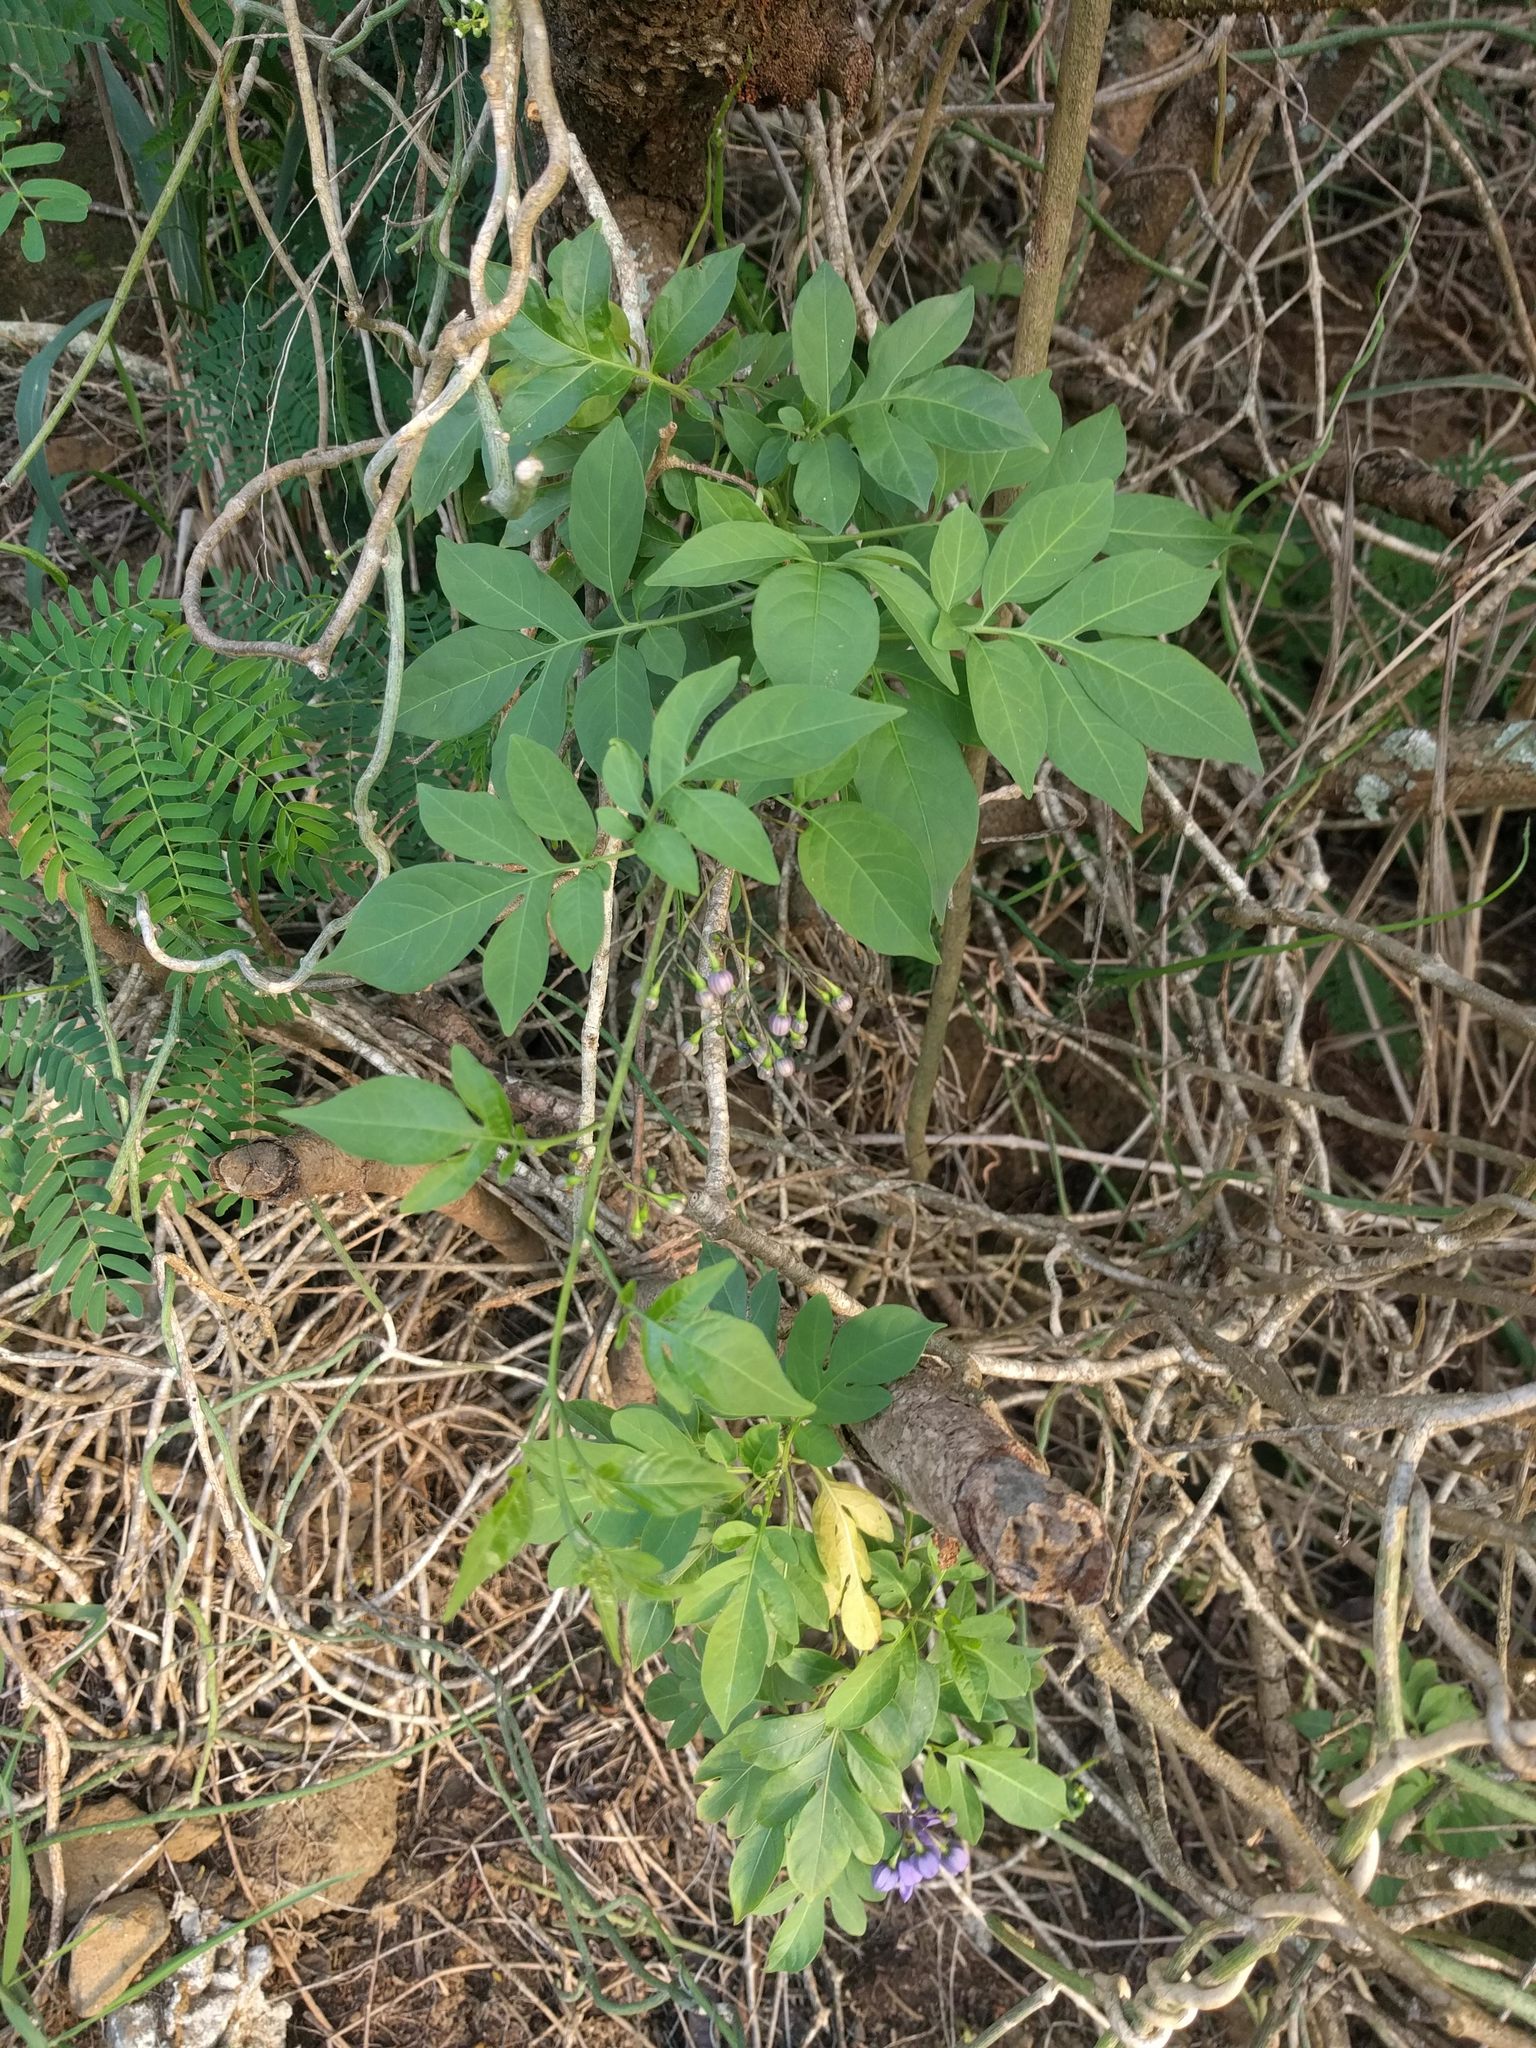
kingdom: Plantae
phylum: Tracheophyta
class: Magnoliopsida
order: Solanales
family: Solanaceae
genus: Solanum
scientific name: Solanum seaforthianum
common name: Brazilian nightshade
